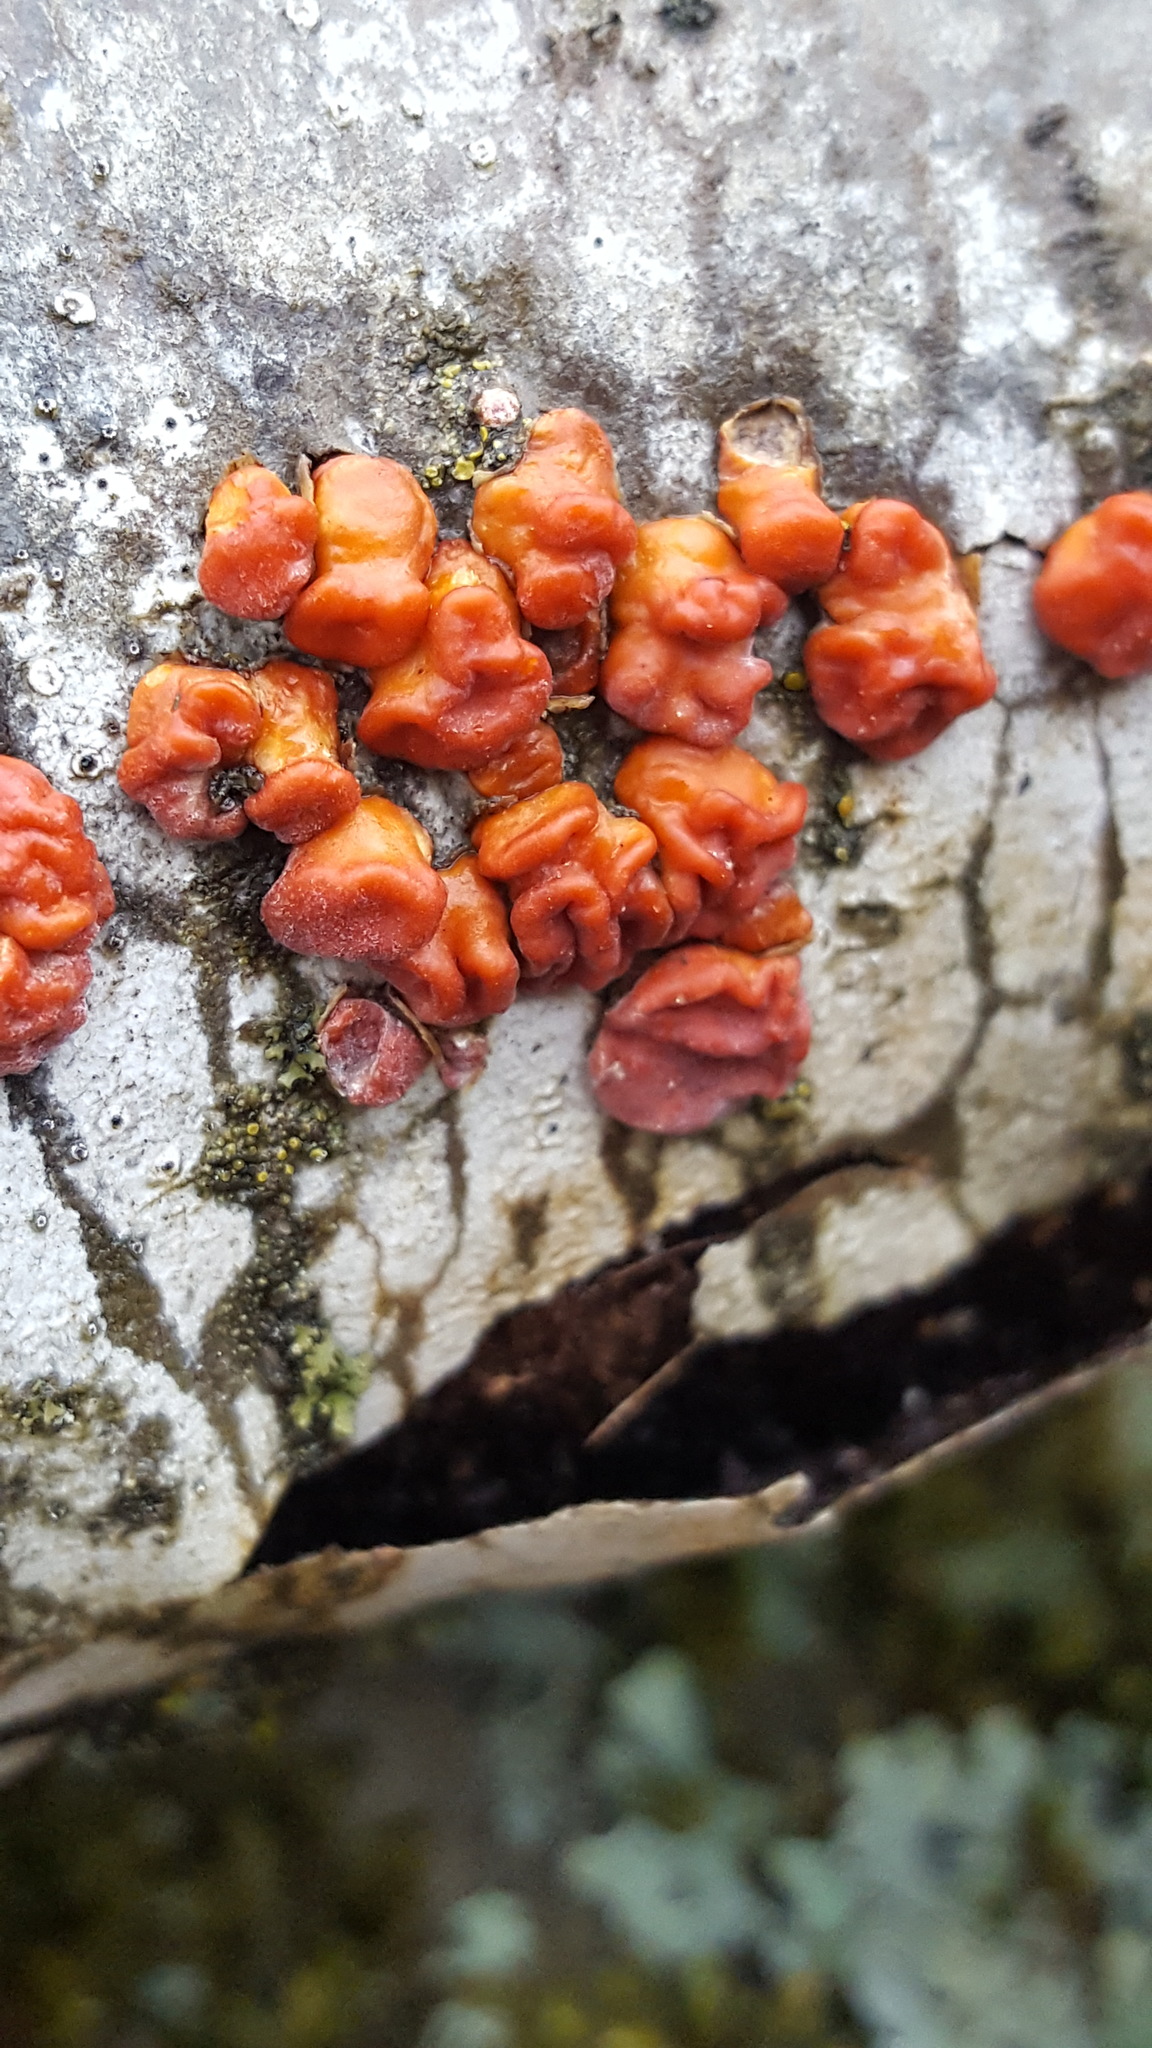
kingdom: Fungi
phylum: Basidiomycota
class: Agaricomycetes
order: Russulales
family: Peniophoraceae
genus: Peniophora
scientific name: Peniophora rufa
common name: Red tree brain fungus
